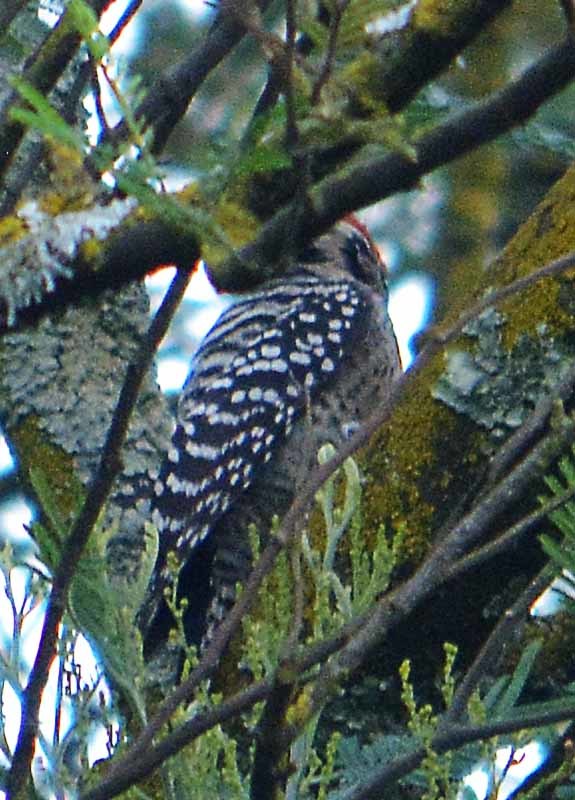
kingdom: Animalia
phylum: Chordata
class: Aves
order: Piciformes
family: Picidae
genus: Dryobates
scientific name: Dryobates scalaris
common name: Ladder-backed woodpecker
